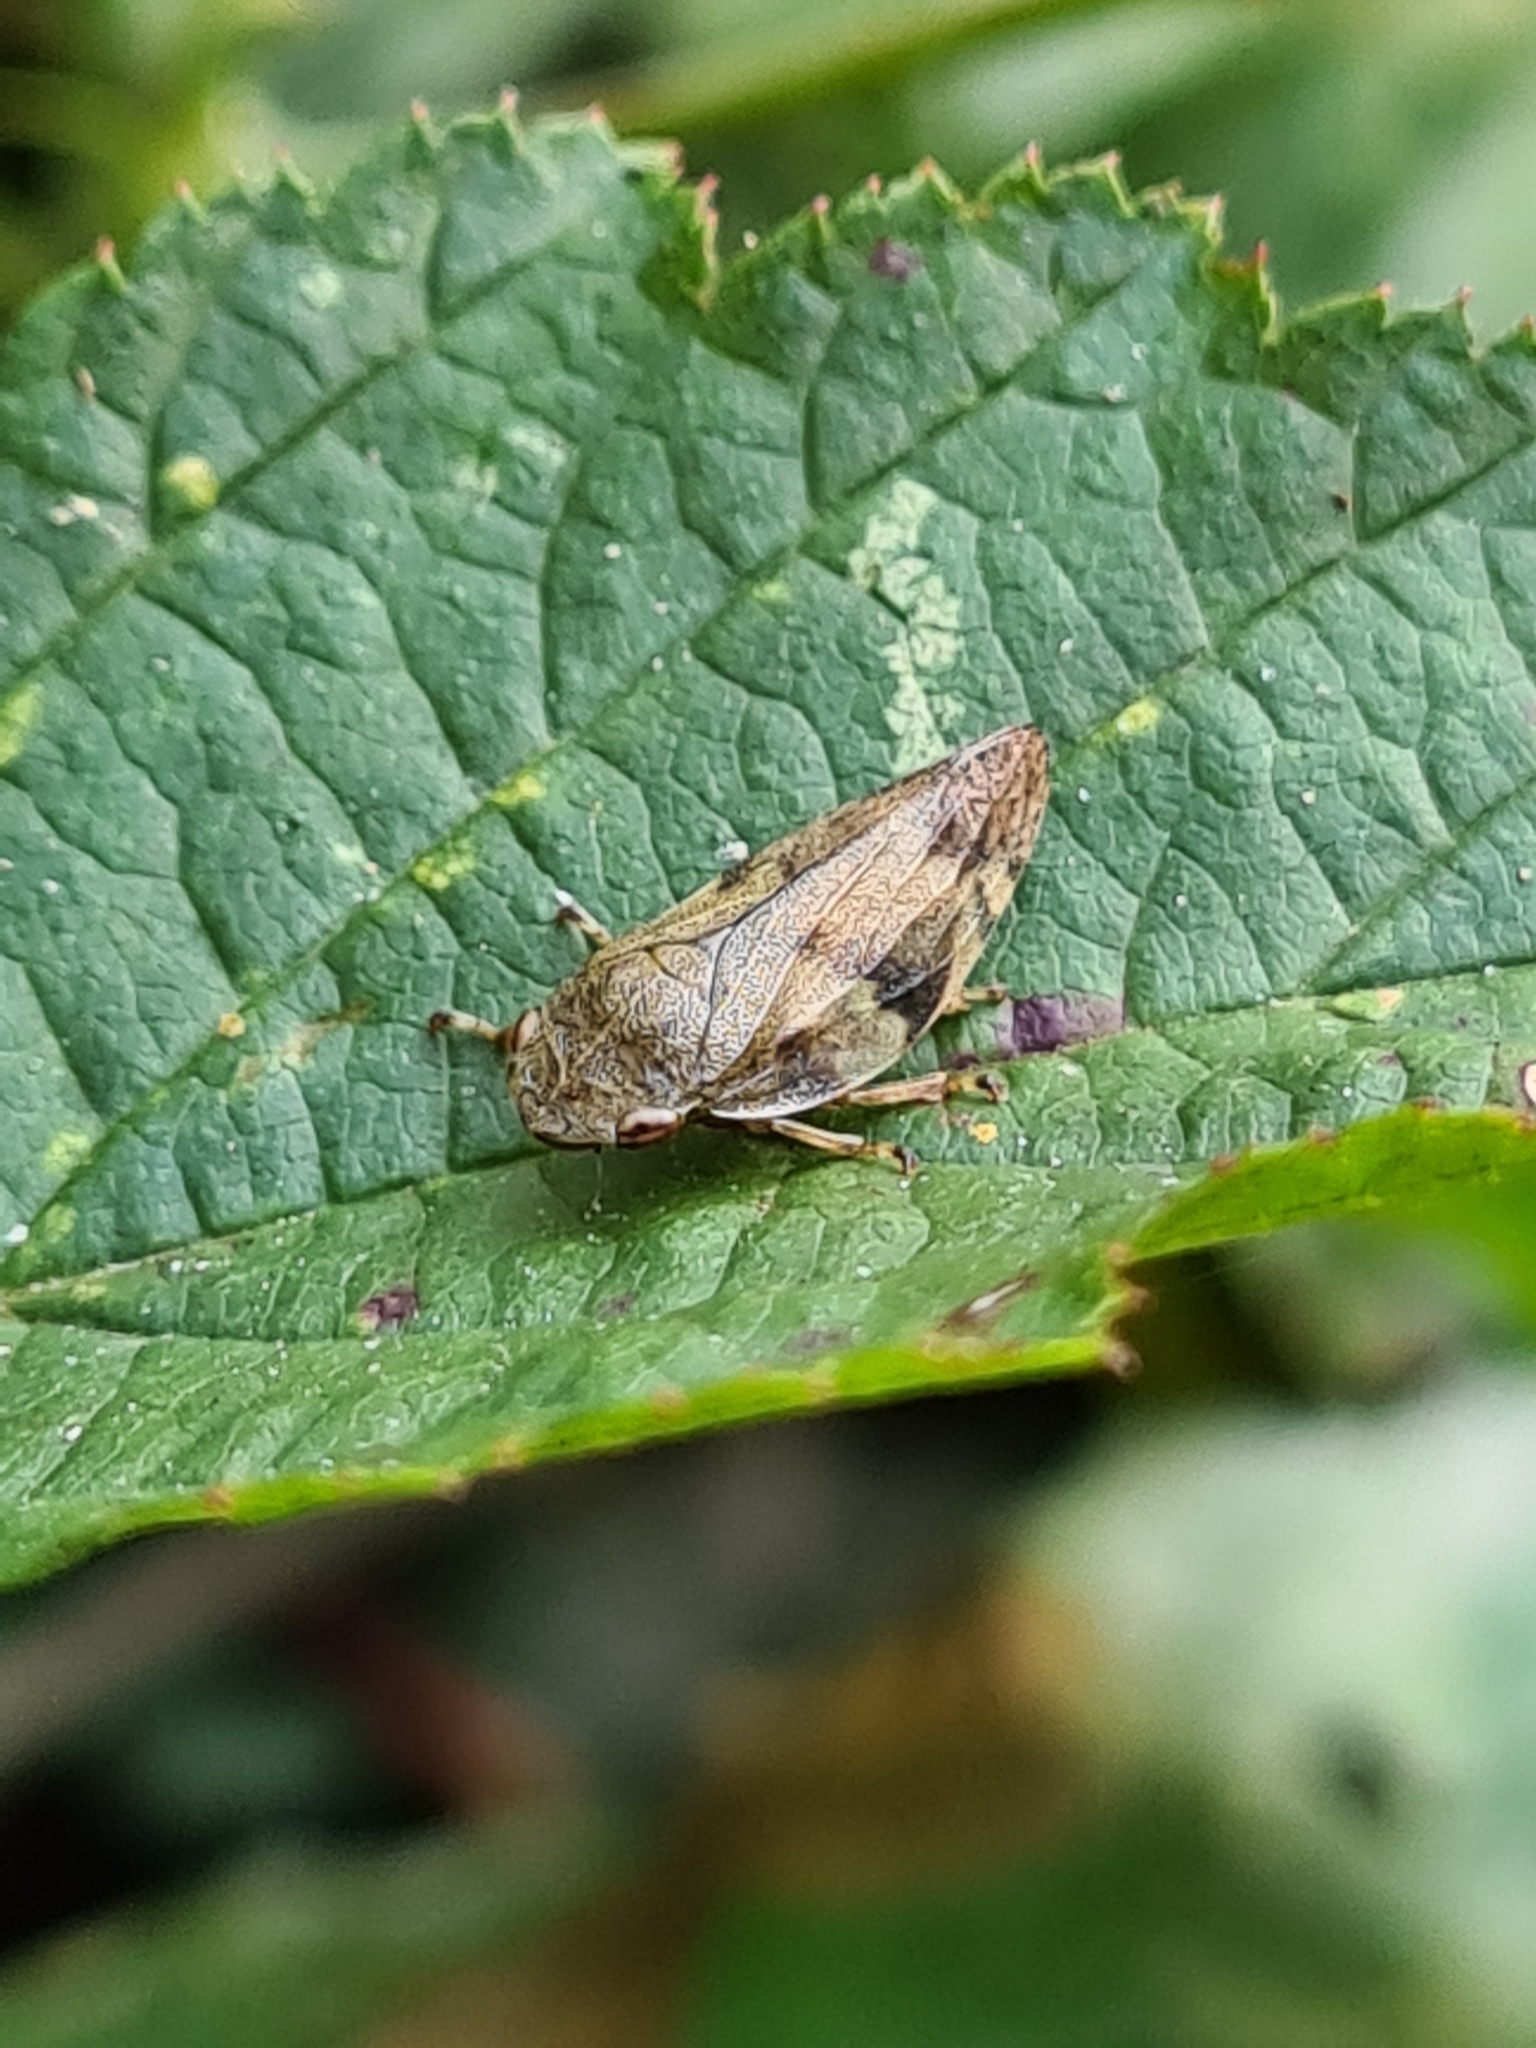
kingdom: Animalia
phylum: Arthropoda
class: Insecta
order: Hemiptera
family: Aphrophoridae
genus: Aphrophora
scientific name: Aphrophora alni
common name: European alder spittlebug
